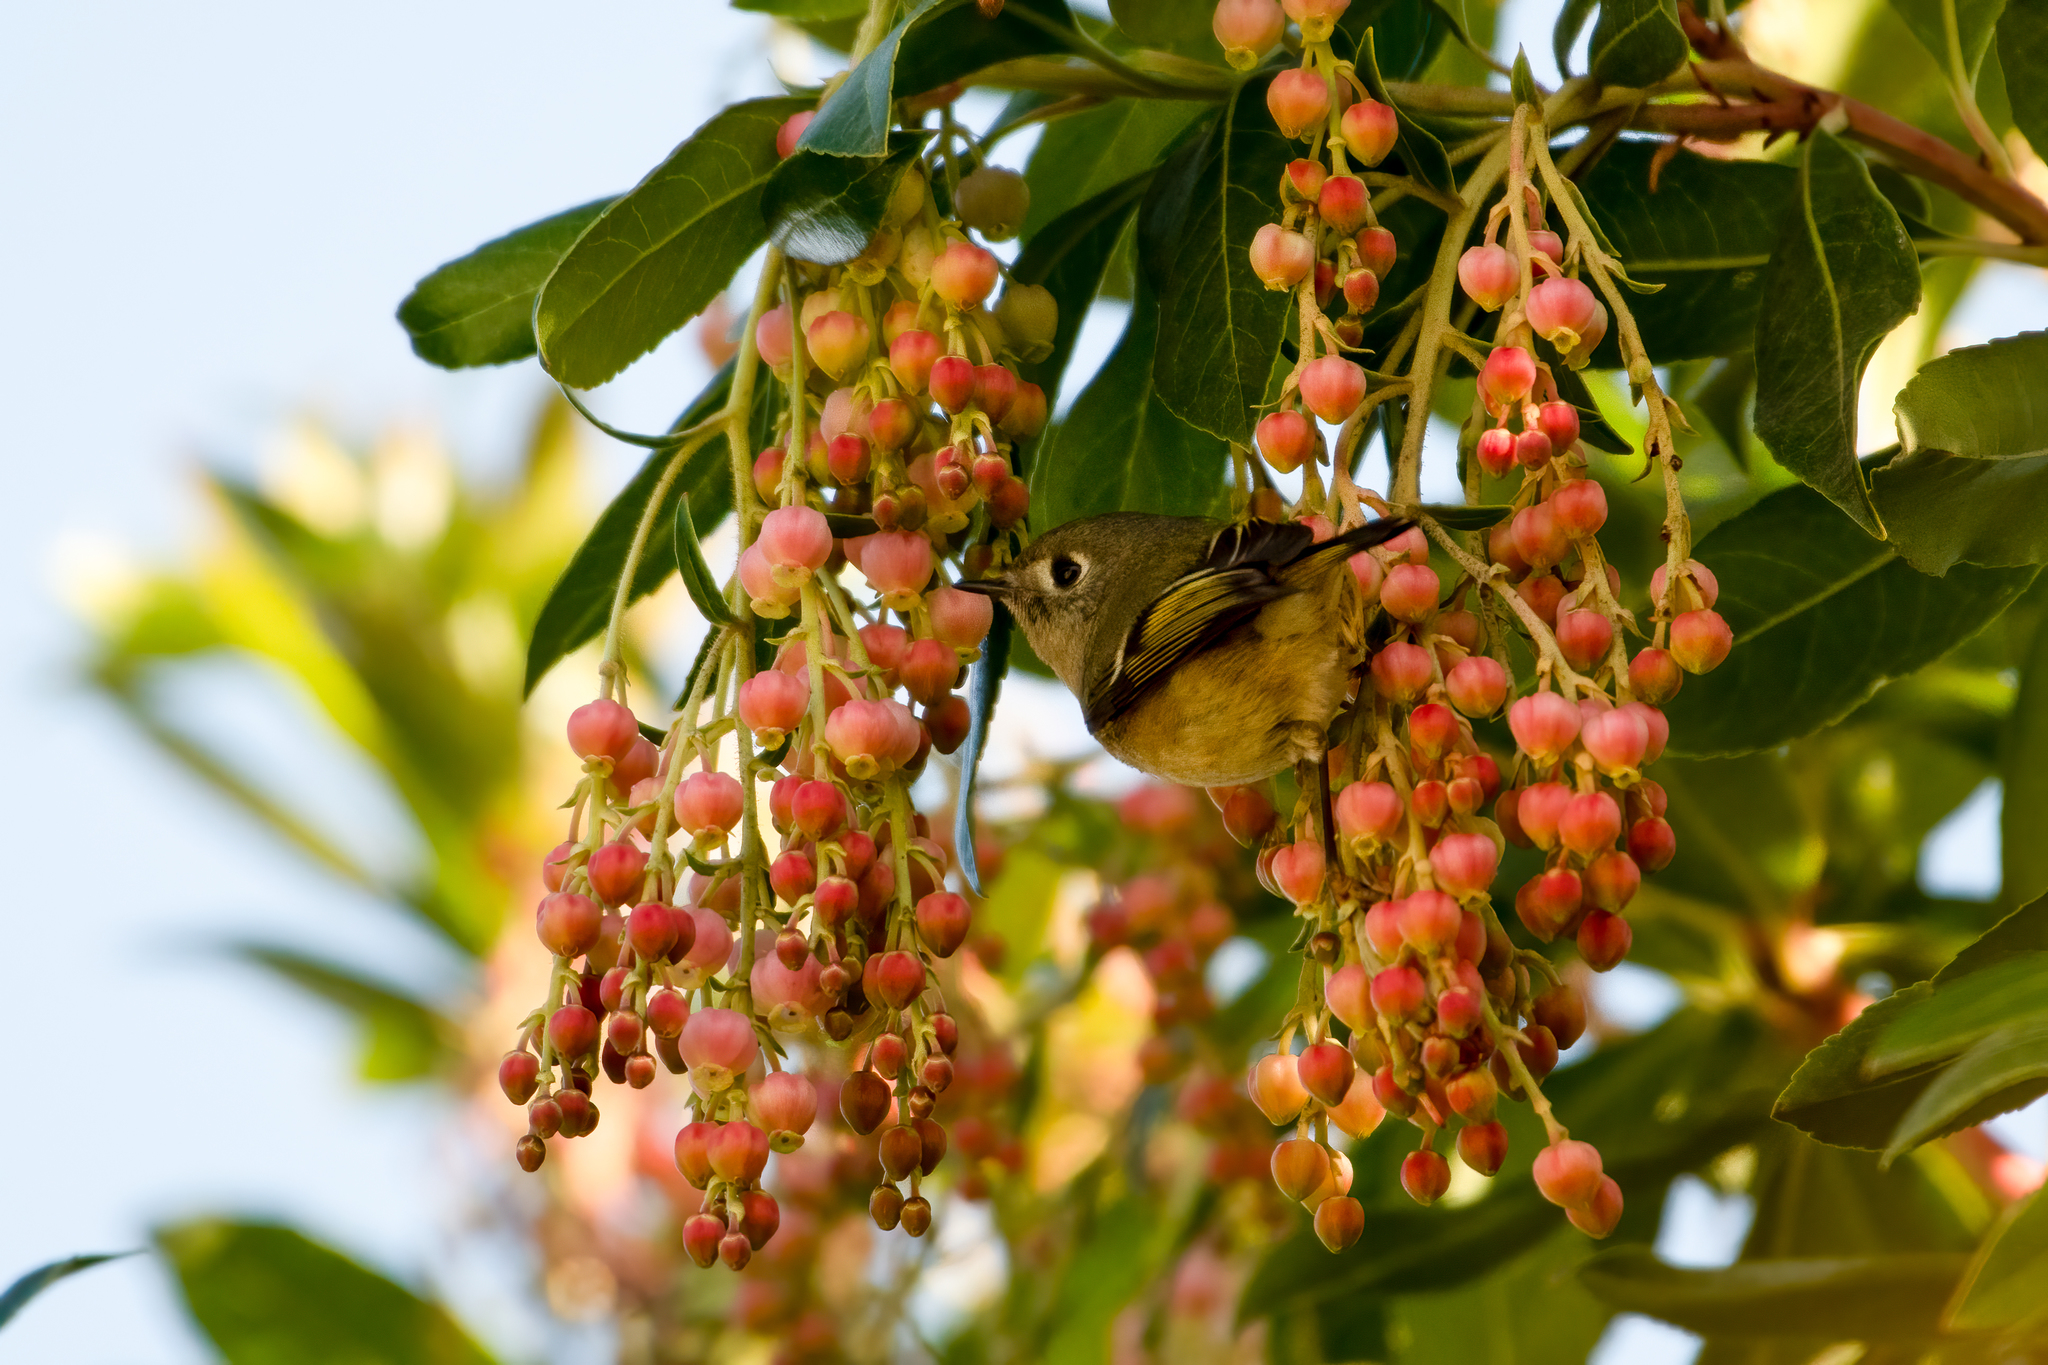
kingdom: Animalia
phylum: Chordata
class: Aves
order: Passeriformes
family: Regulidae
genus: Regulus
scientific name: Regulus calendula
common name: Ruby-crowned kinglet
